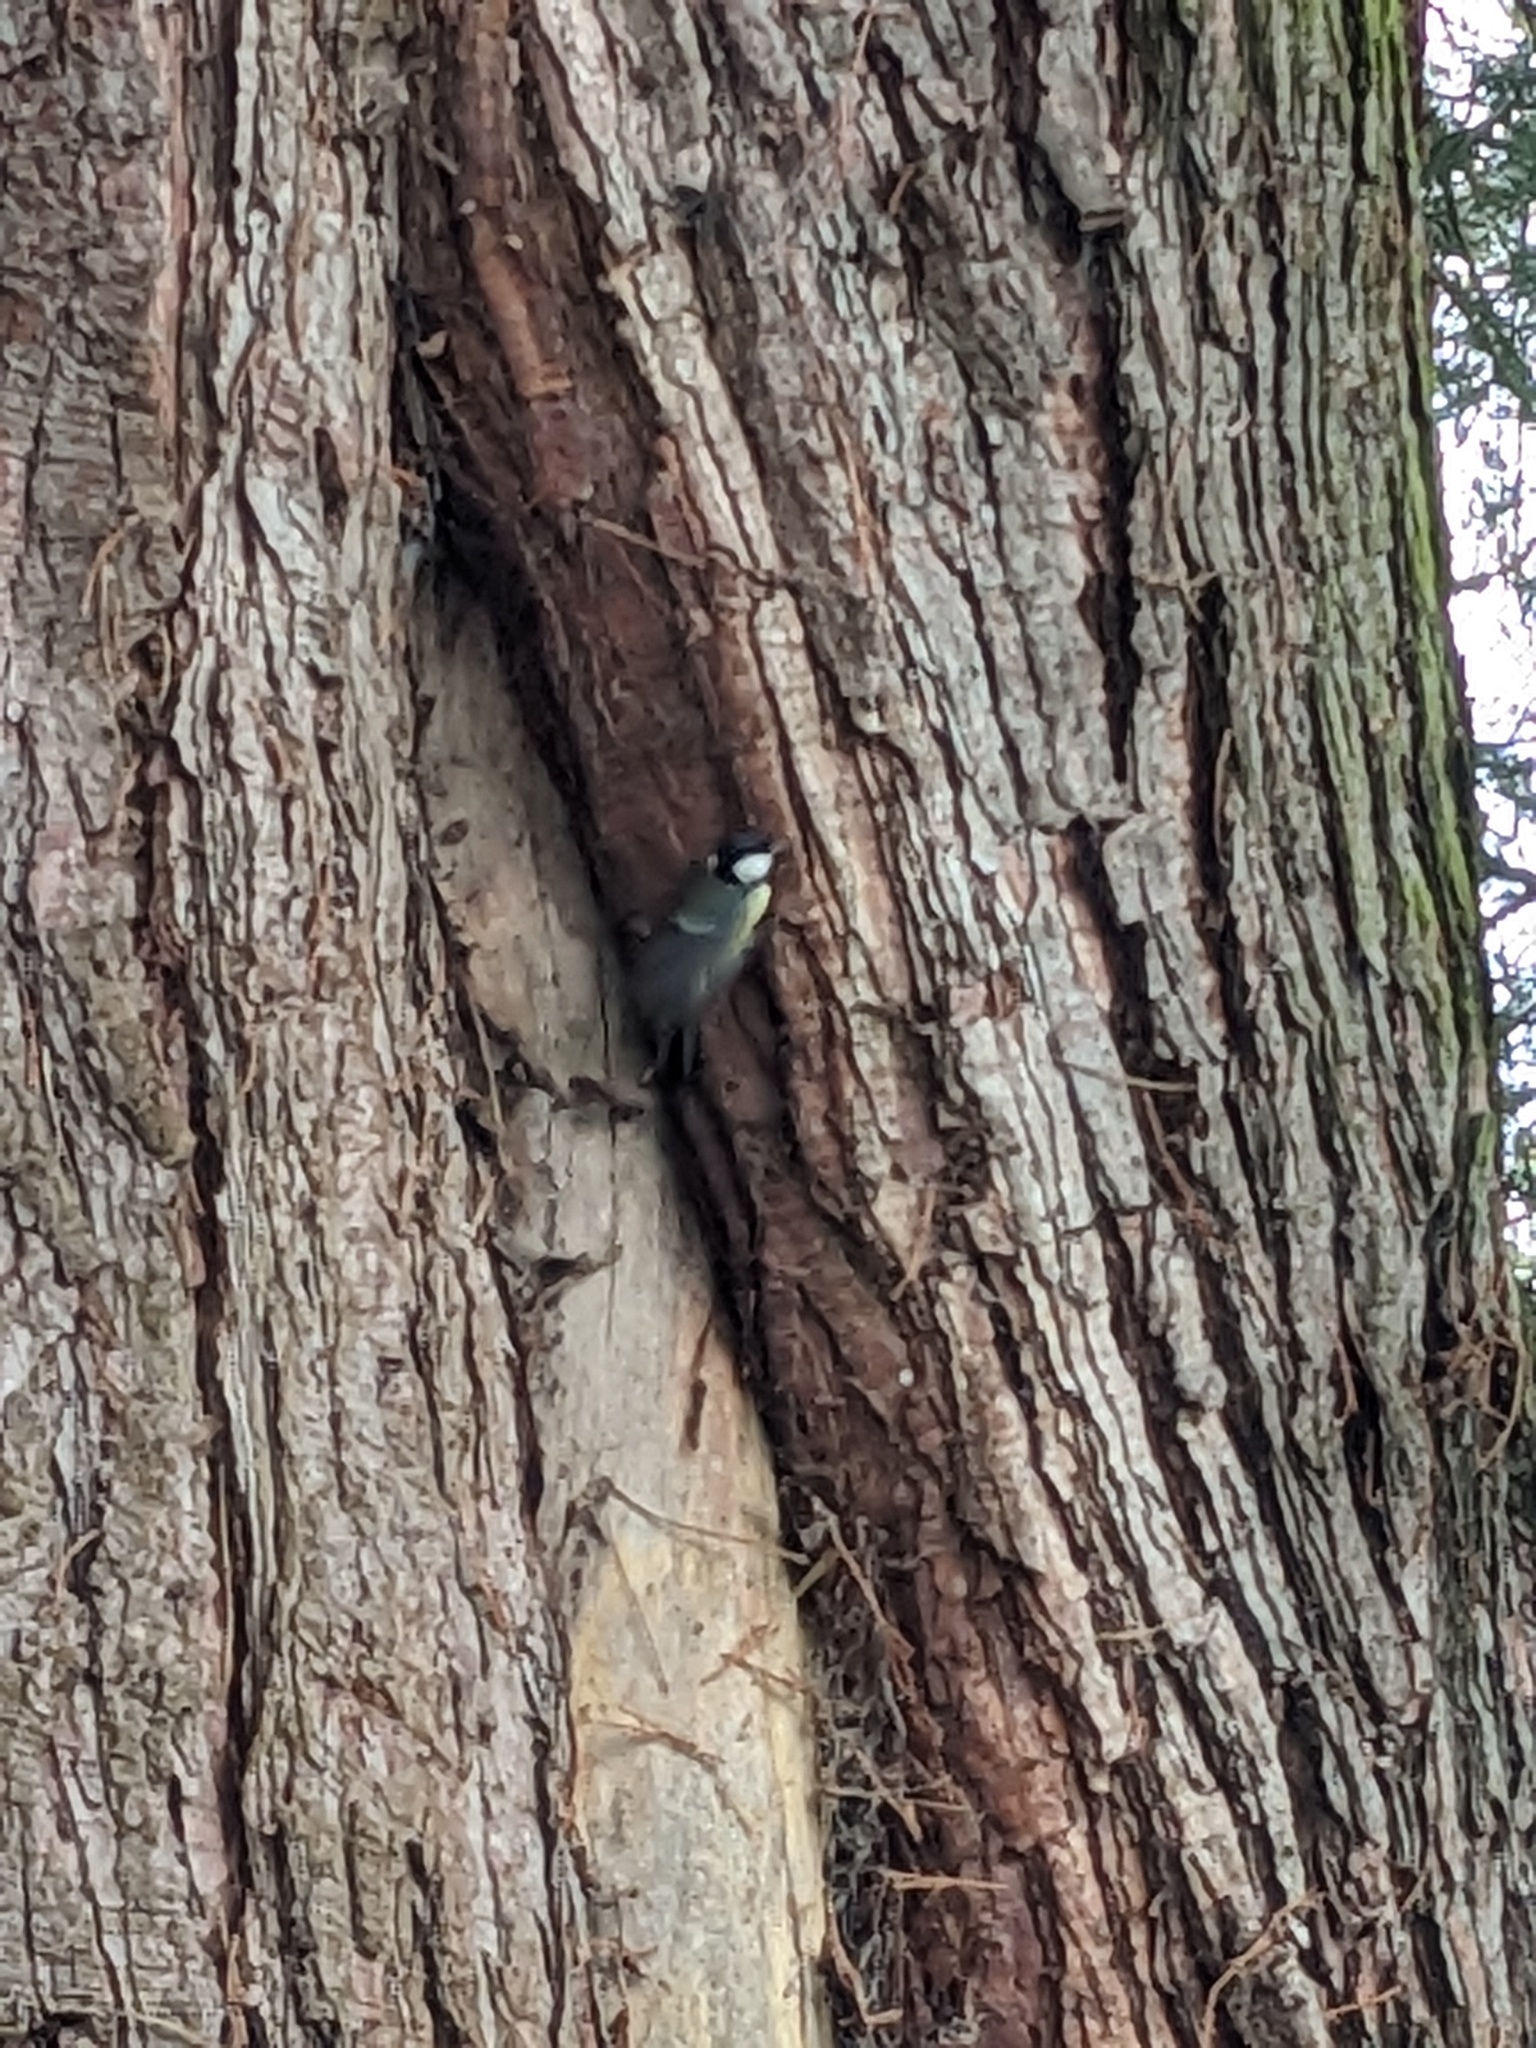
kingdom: Animalia
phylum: Chordata
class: Aves
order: Passeriformes
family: Paridae
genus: Parus
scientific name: Parus major
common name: Great tit
